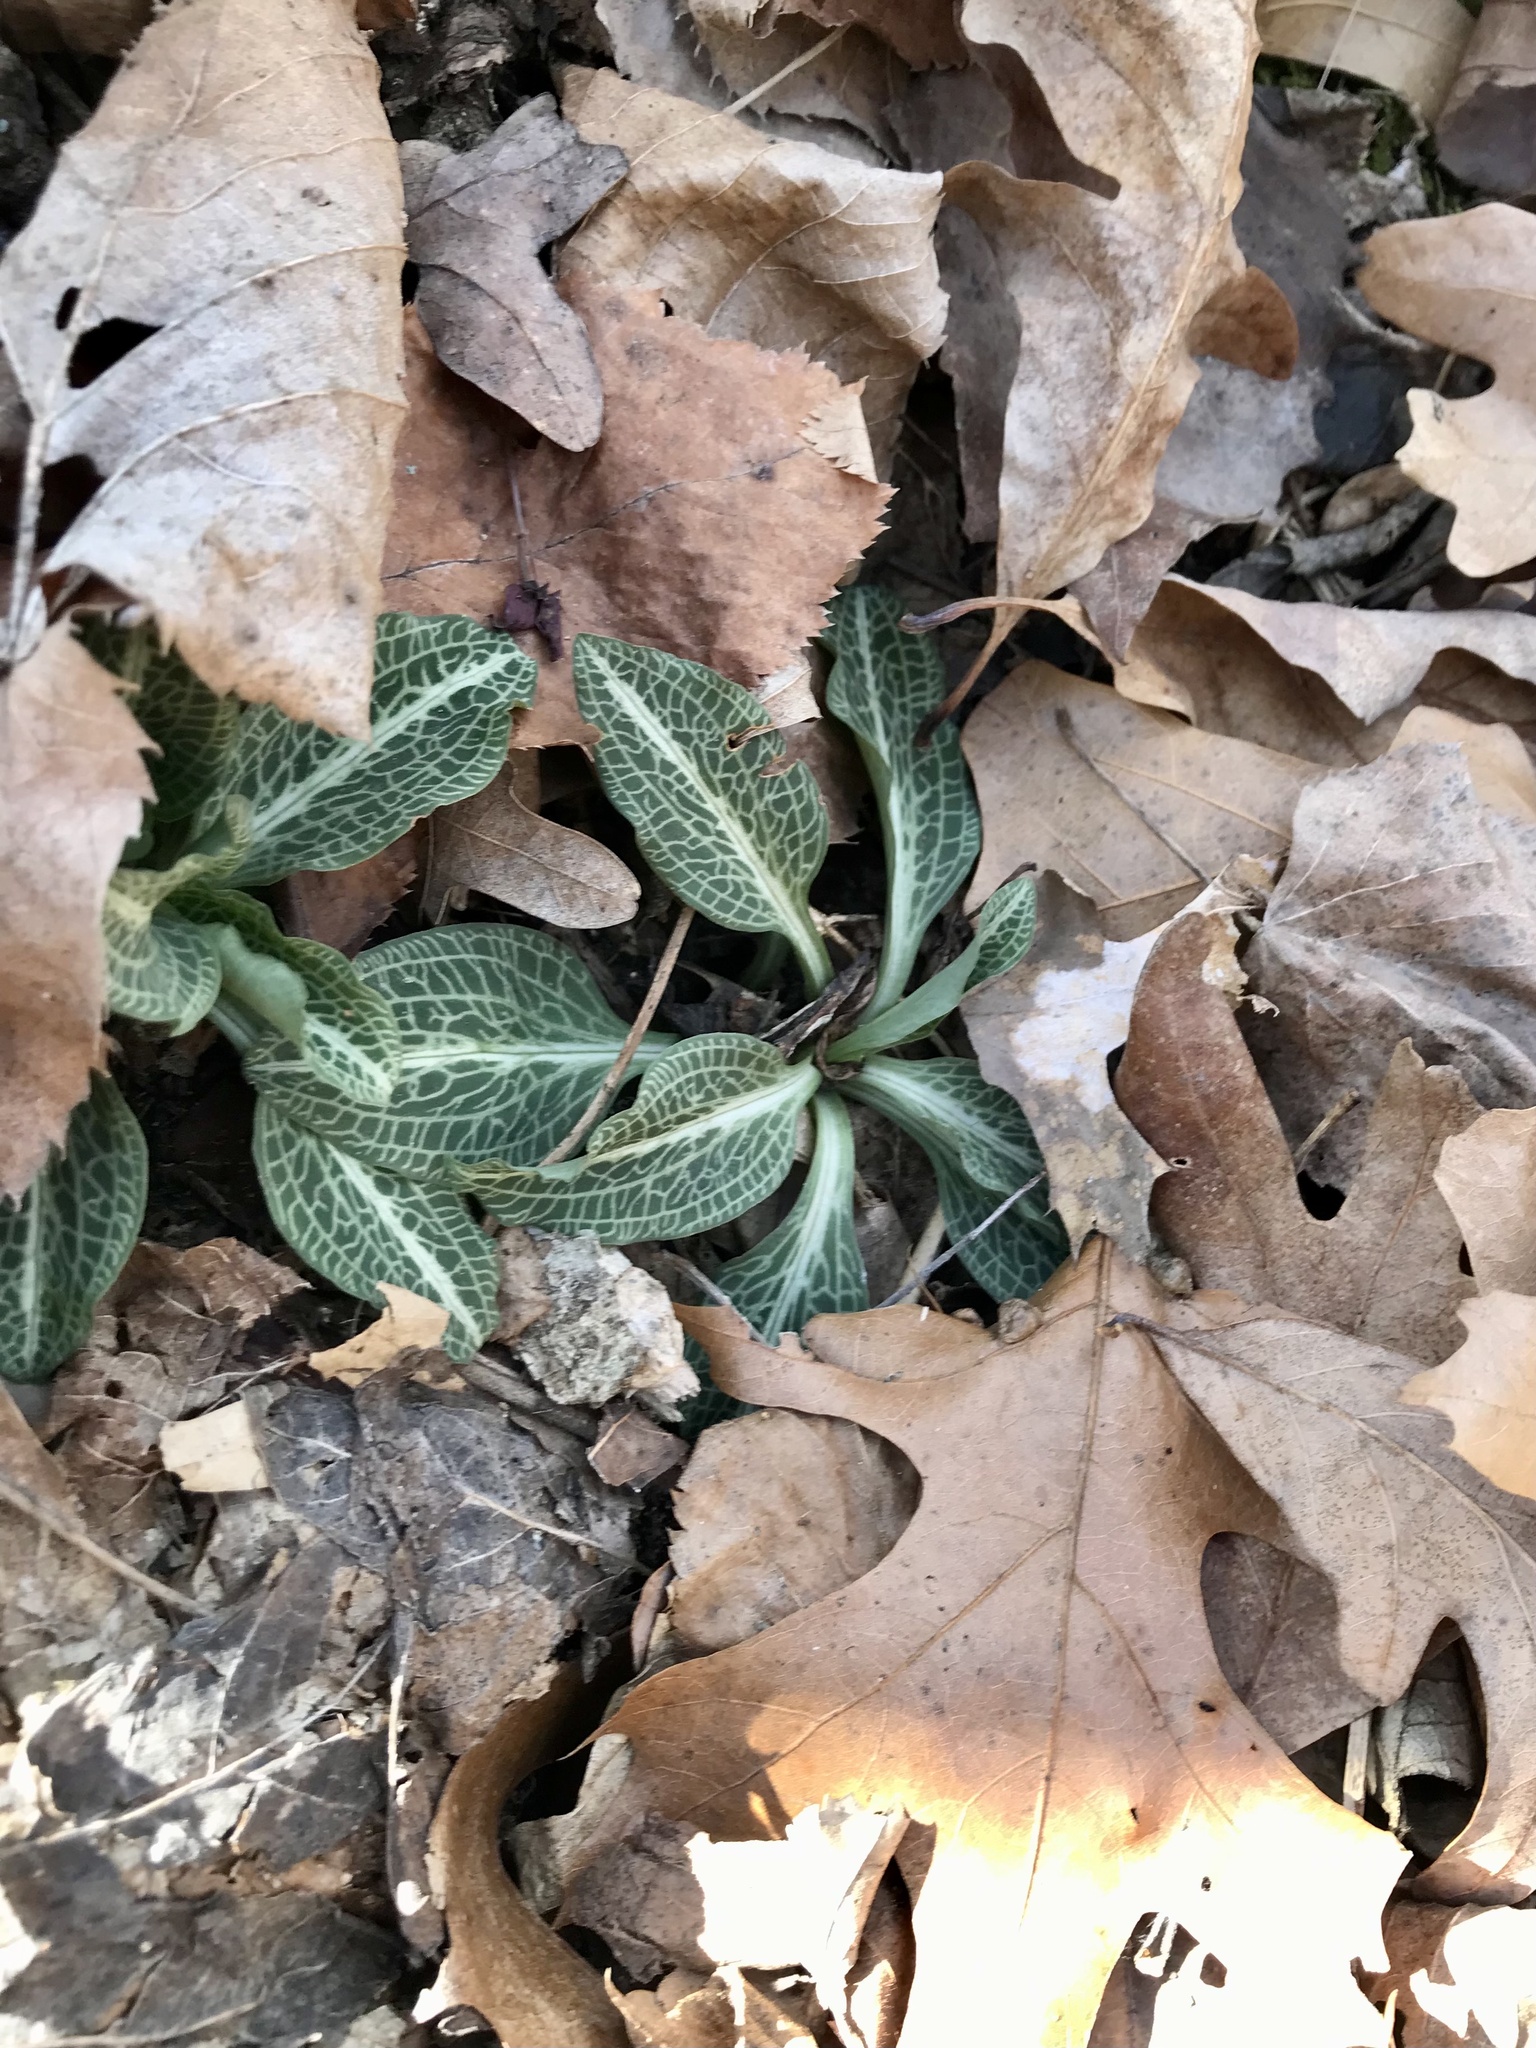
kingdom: Plantae
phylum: Tracheophyta
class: Liliopsida
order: Asparagales
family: Orchidaceae
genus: Goodyera
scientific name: Goodyera pubescens
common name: Downy rattlesnake-plantain
